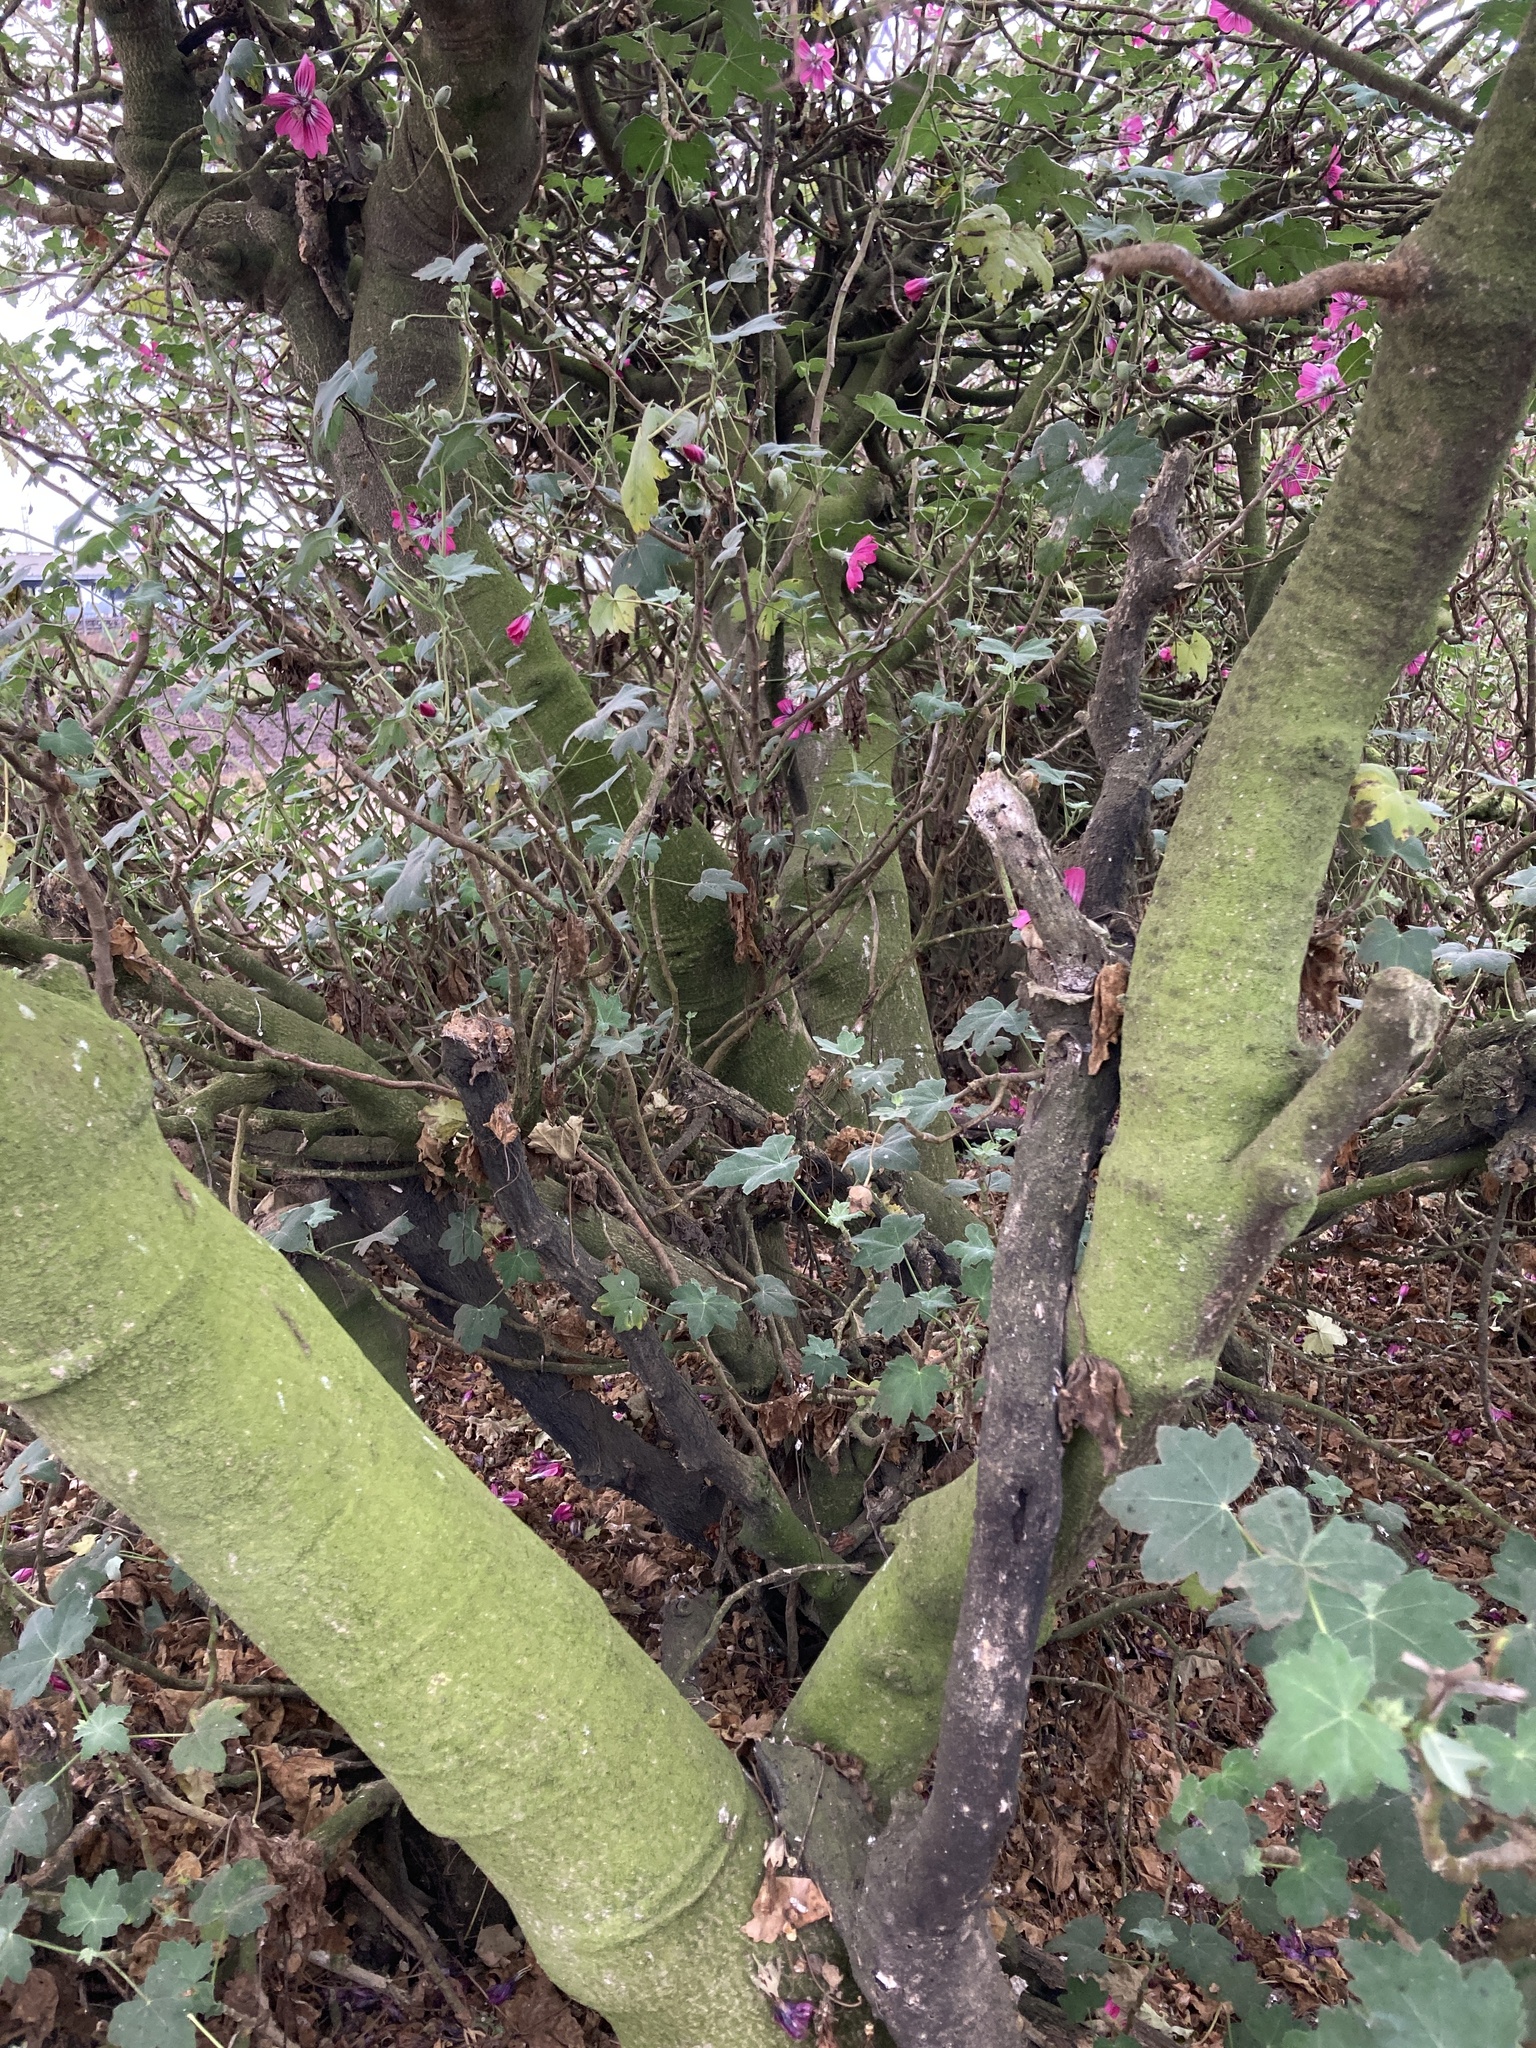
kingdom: Plantae
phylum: Tracheophyta
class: Magnoliopsida
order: Malvales
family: Malvaceae
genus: Malva
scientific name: Malva assurgentiflora
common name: Island mallow
